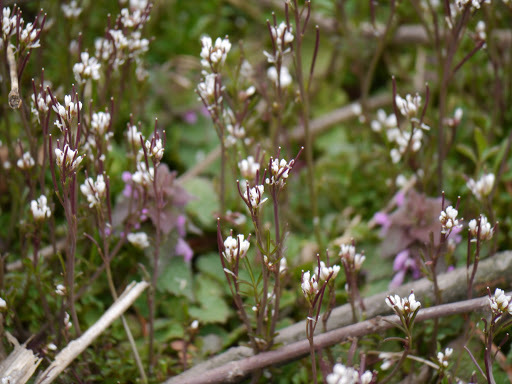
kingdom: Plantae
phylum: Tracheophyta
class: Magnoliopsida
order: Brassicales
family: Brassicaceae
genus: Cardamine
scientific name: Cardamine hirsuta
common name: Hairy bittercress
